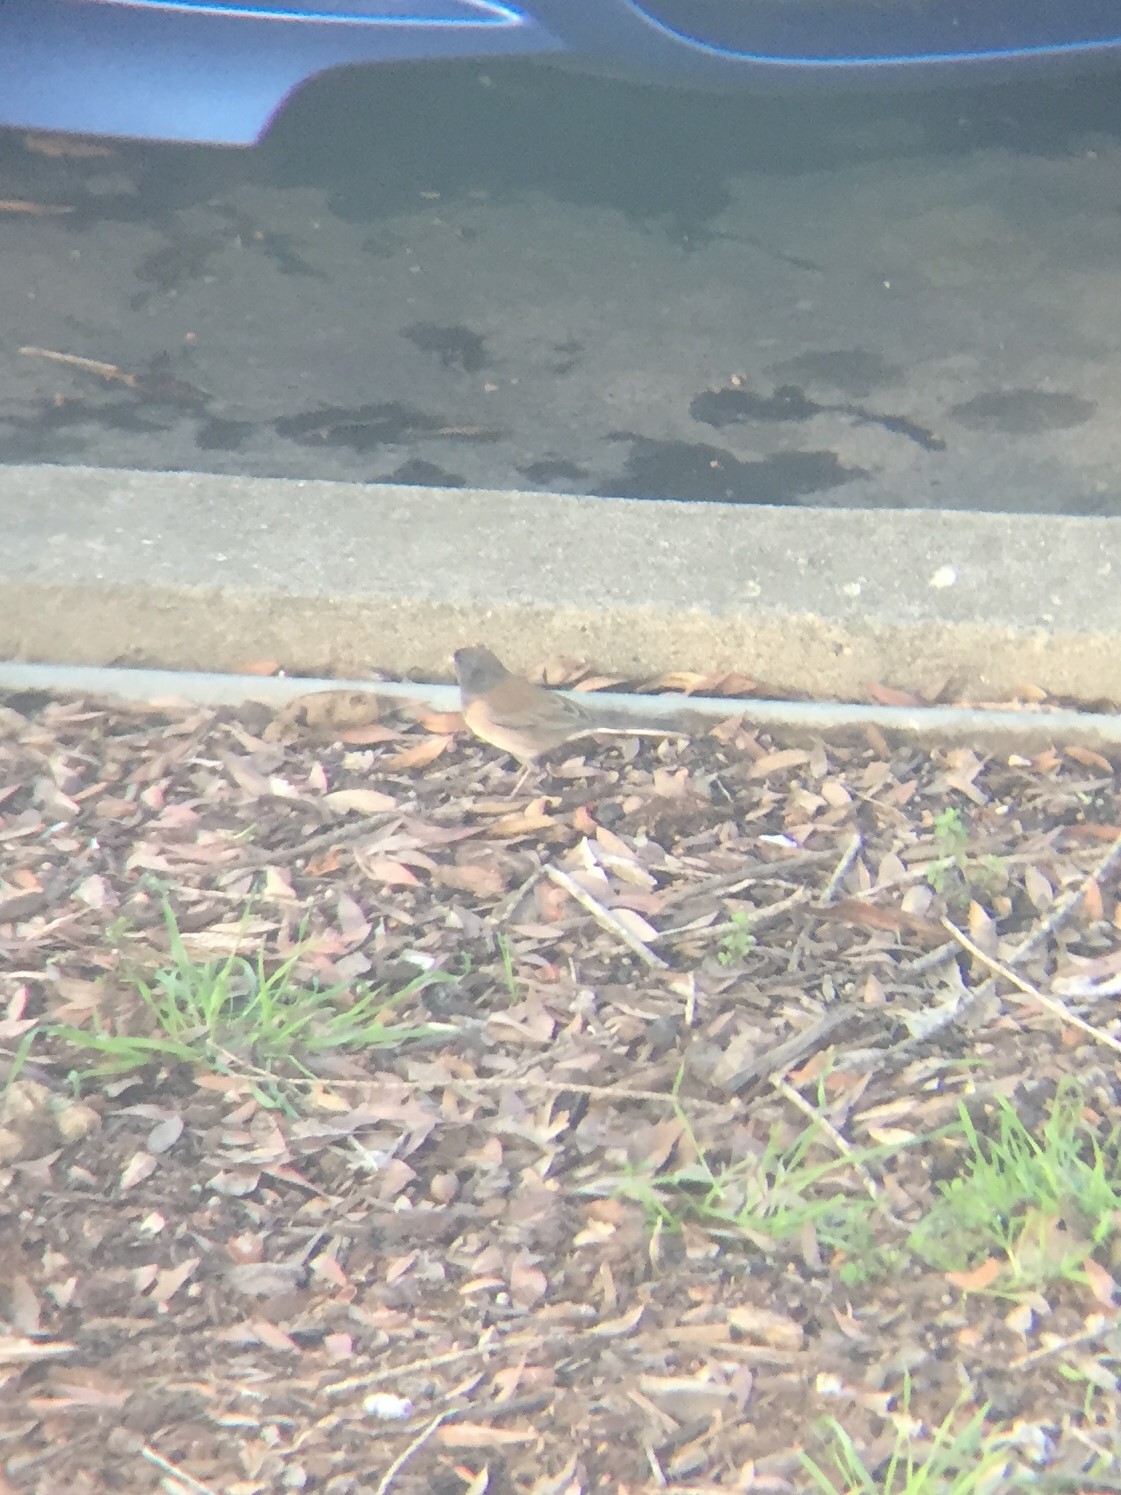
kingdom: Animalia
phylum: Chordata
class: Aves
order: Passeriformes
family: Passerellidae
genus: Junco
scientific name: Junco hyemalis
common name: Dark-eyed junco
